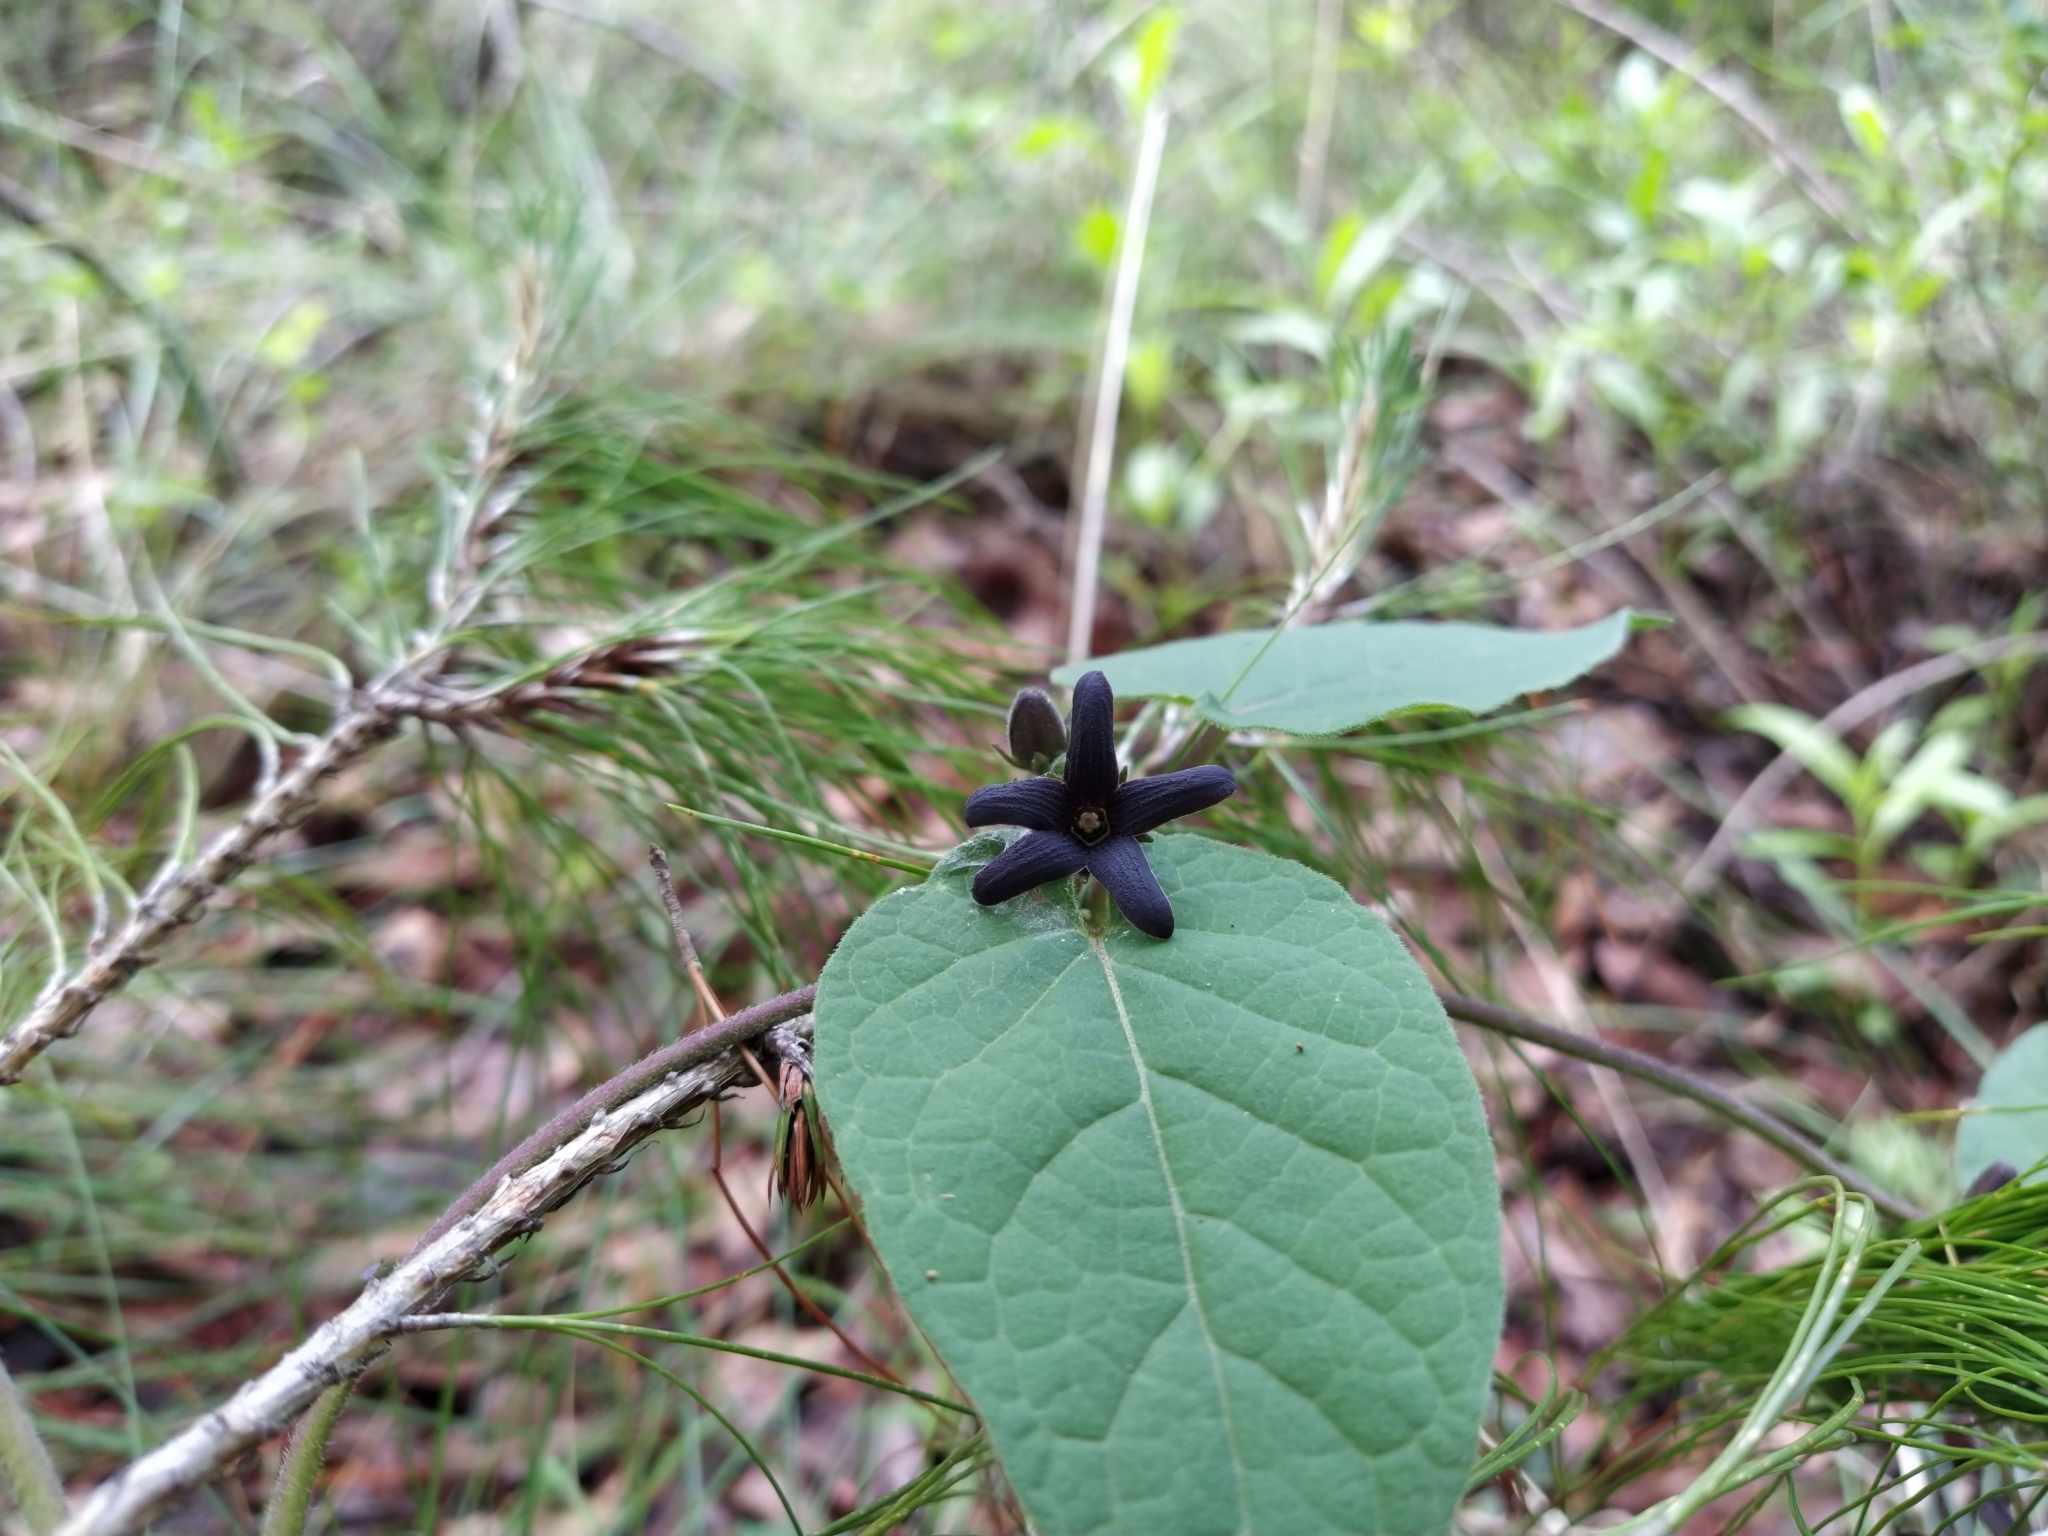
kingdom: Plantae
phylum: Tracheophyta
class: Magnoliopsida
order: Gentianales
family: Apocynaceae
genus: Matelea
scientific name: Matelea tlilxochitli
